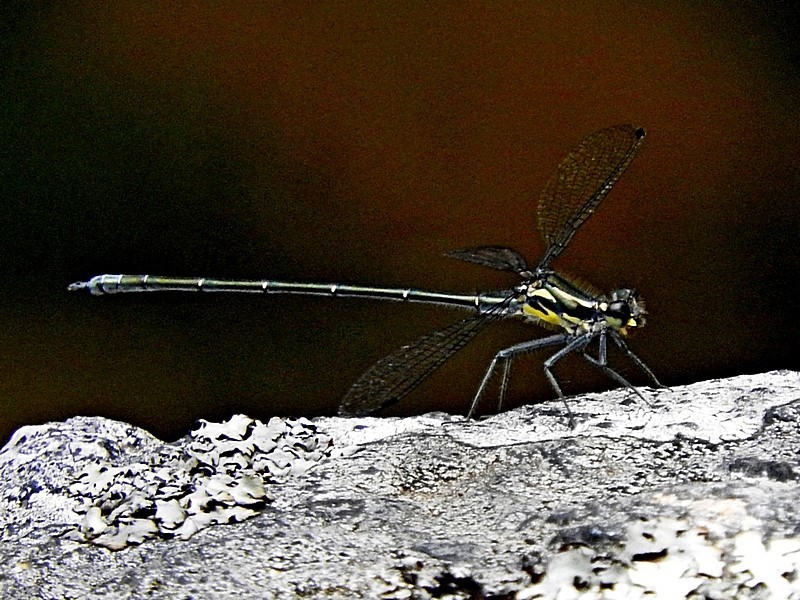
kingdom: Animalia
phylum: Arthropoda
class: Insecta
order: Odonata
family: Argiolestidae
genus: Austroargiolestes
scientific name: Austroargiolestes icteromelas
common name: Common flatwing
